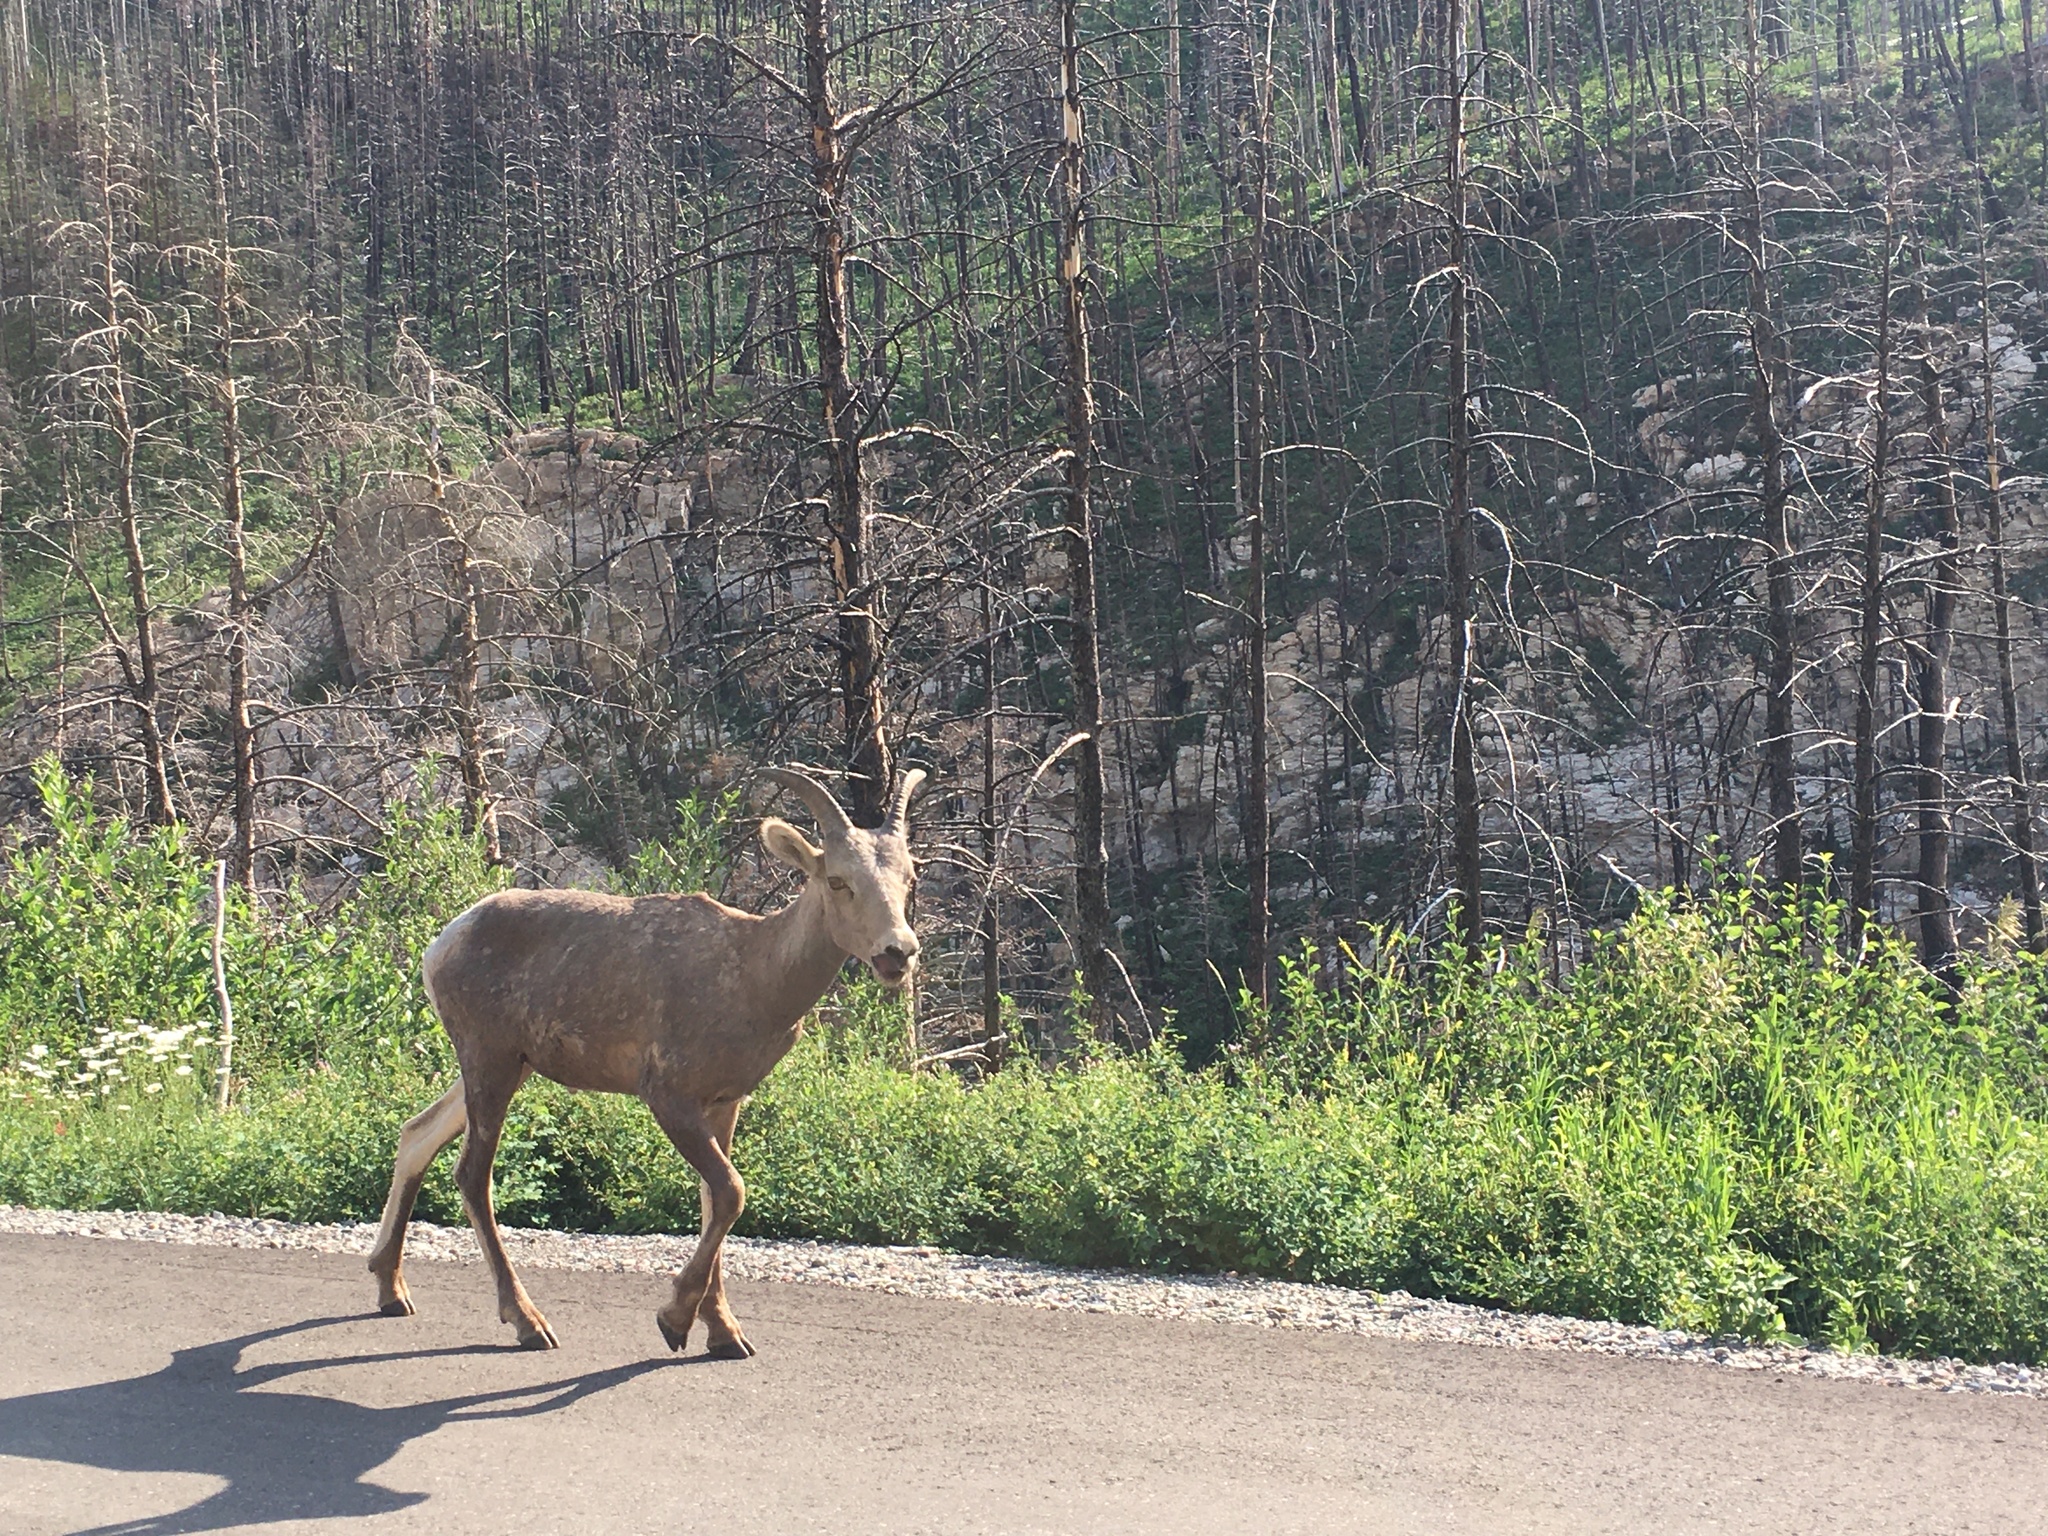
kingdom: Animalia
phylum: Chordata
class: Mammalia
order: Artiodactyla
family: Bovidae
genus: Ovis
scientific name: Ovis canadensis
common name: Bighorn sheep
